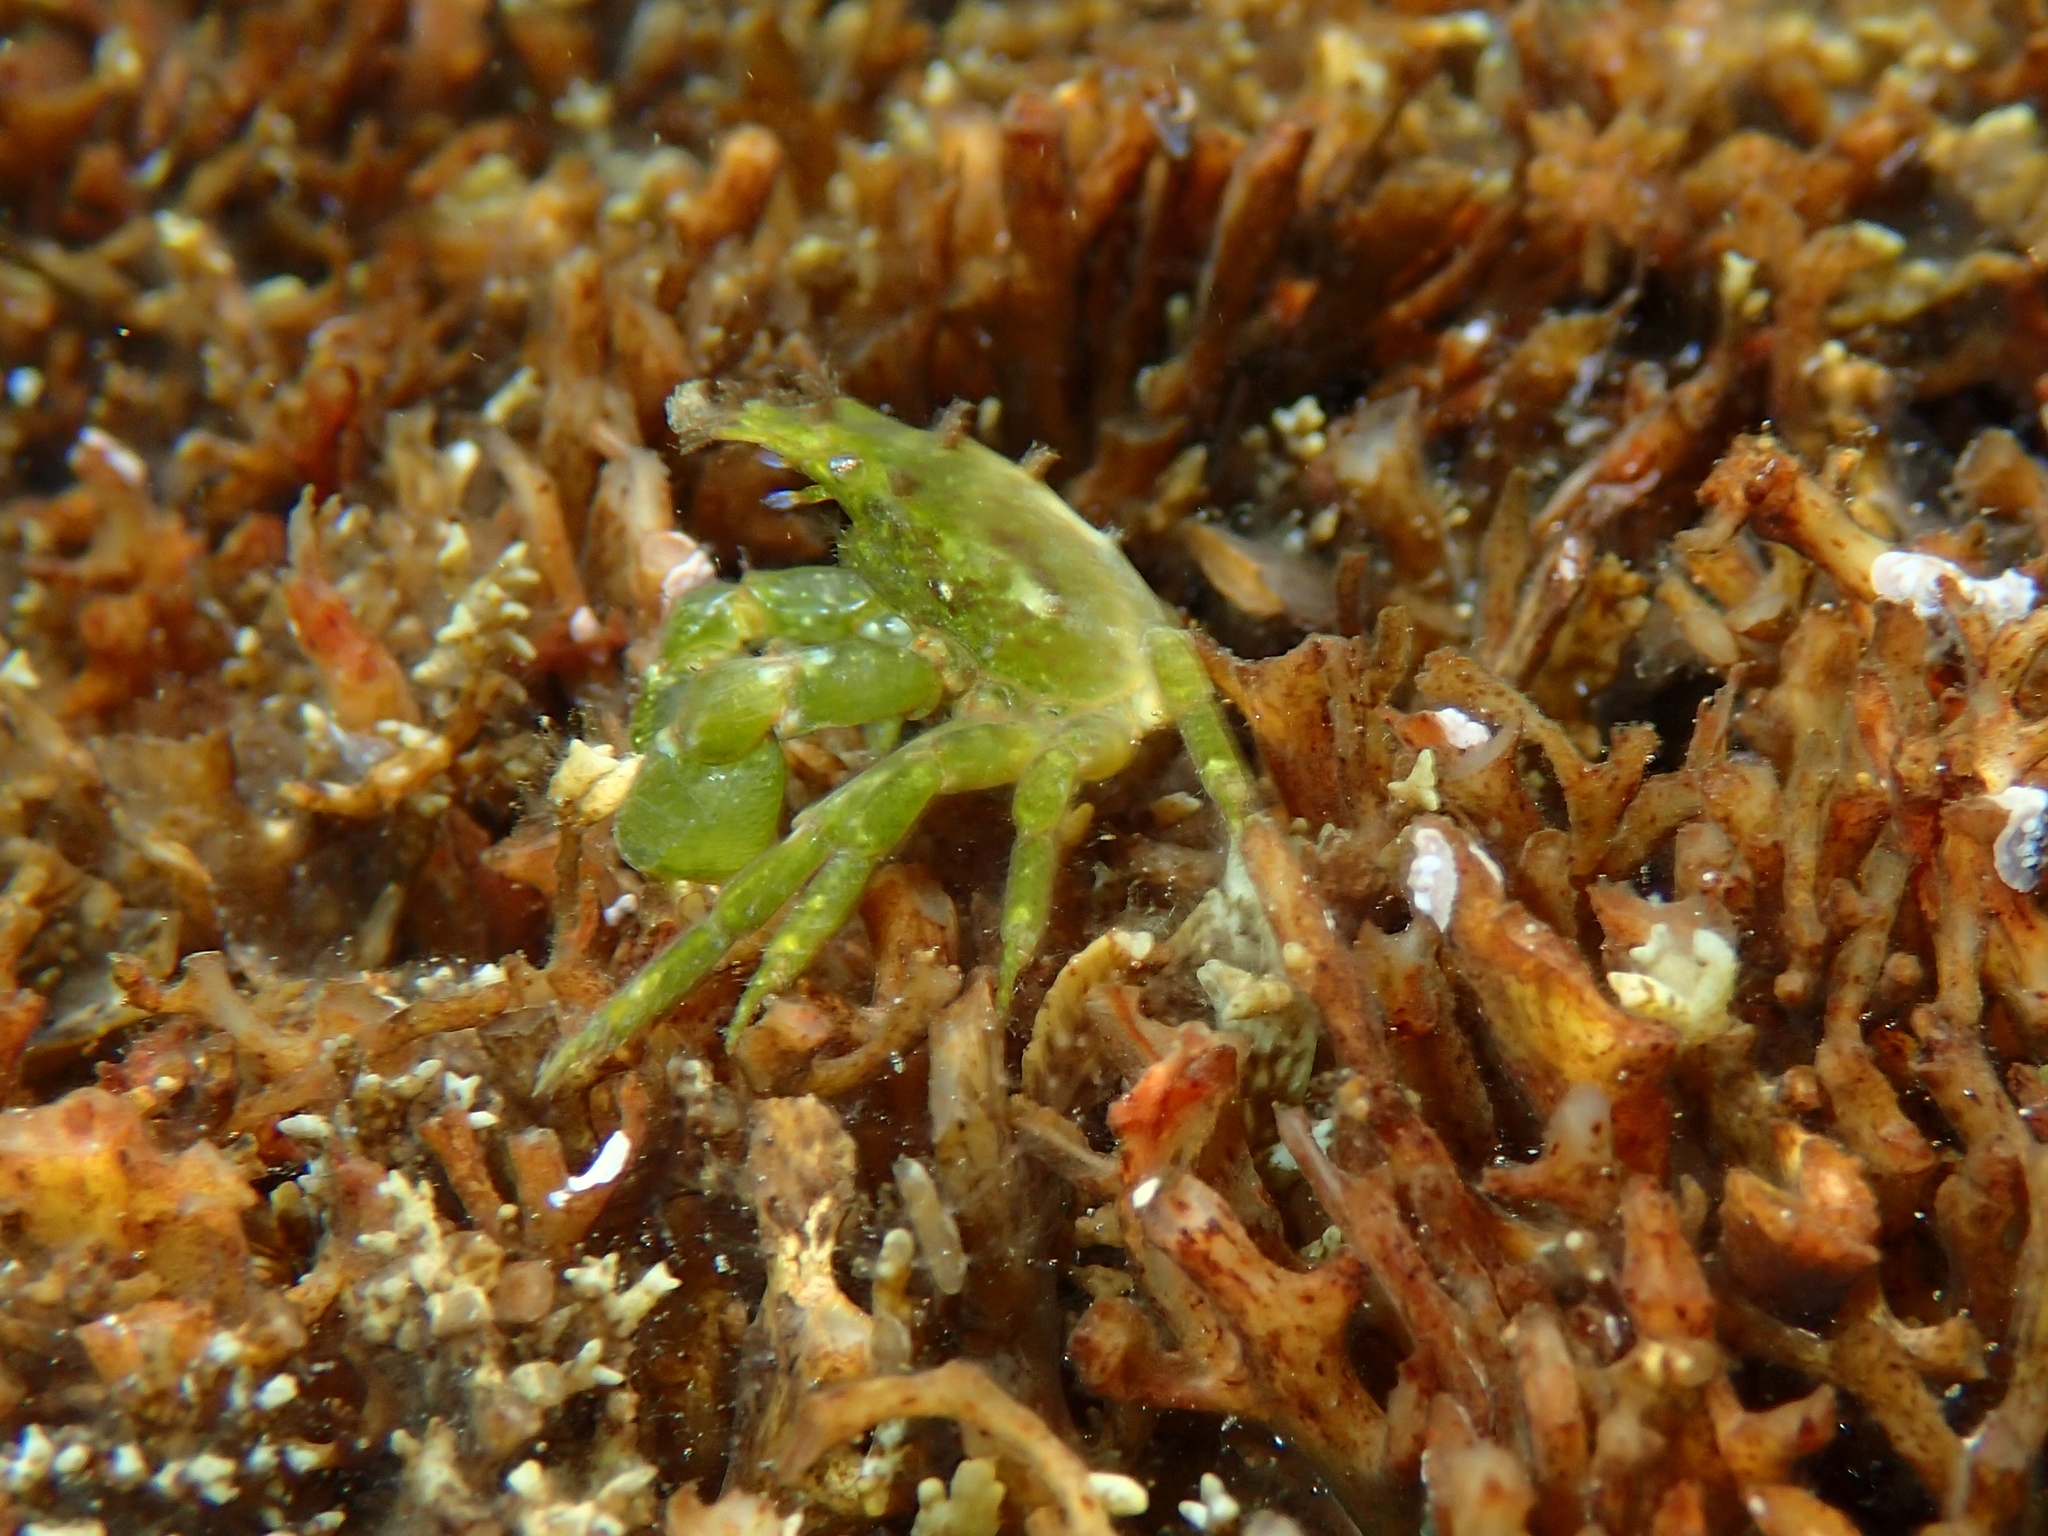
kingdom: Animalia
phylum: Arthropoda
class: Malacostraca
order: Decapoda
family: Epialtidae
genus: Acanthonyx
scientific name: Acanthonyx lunulatus
